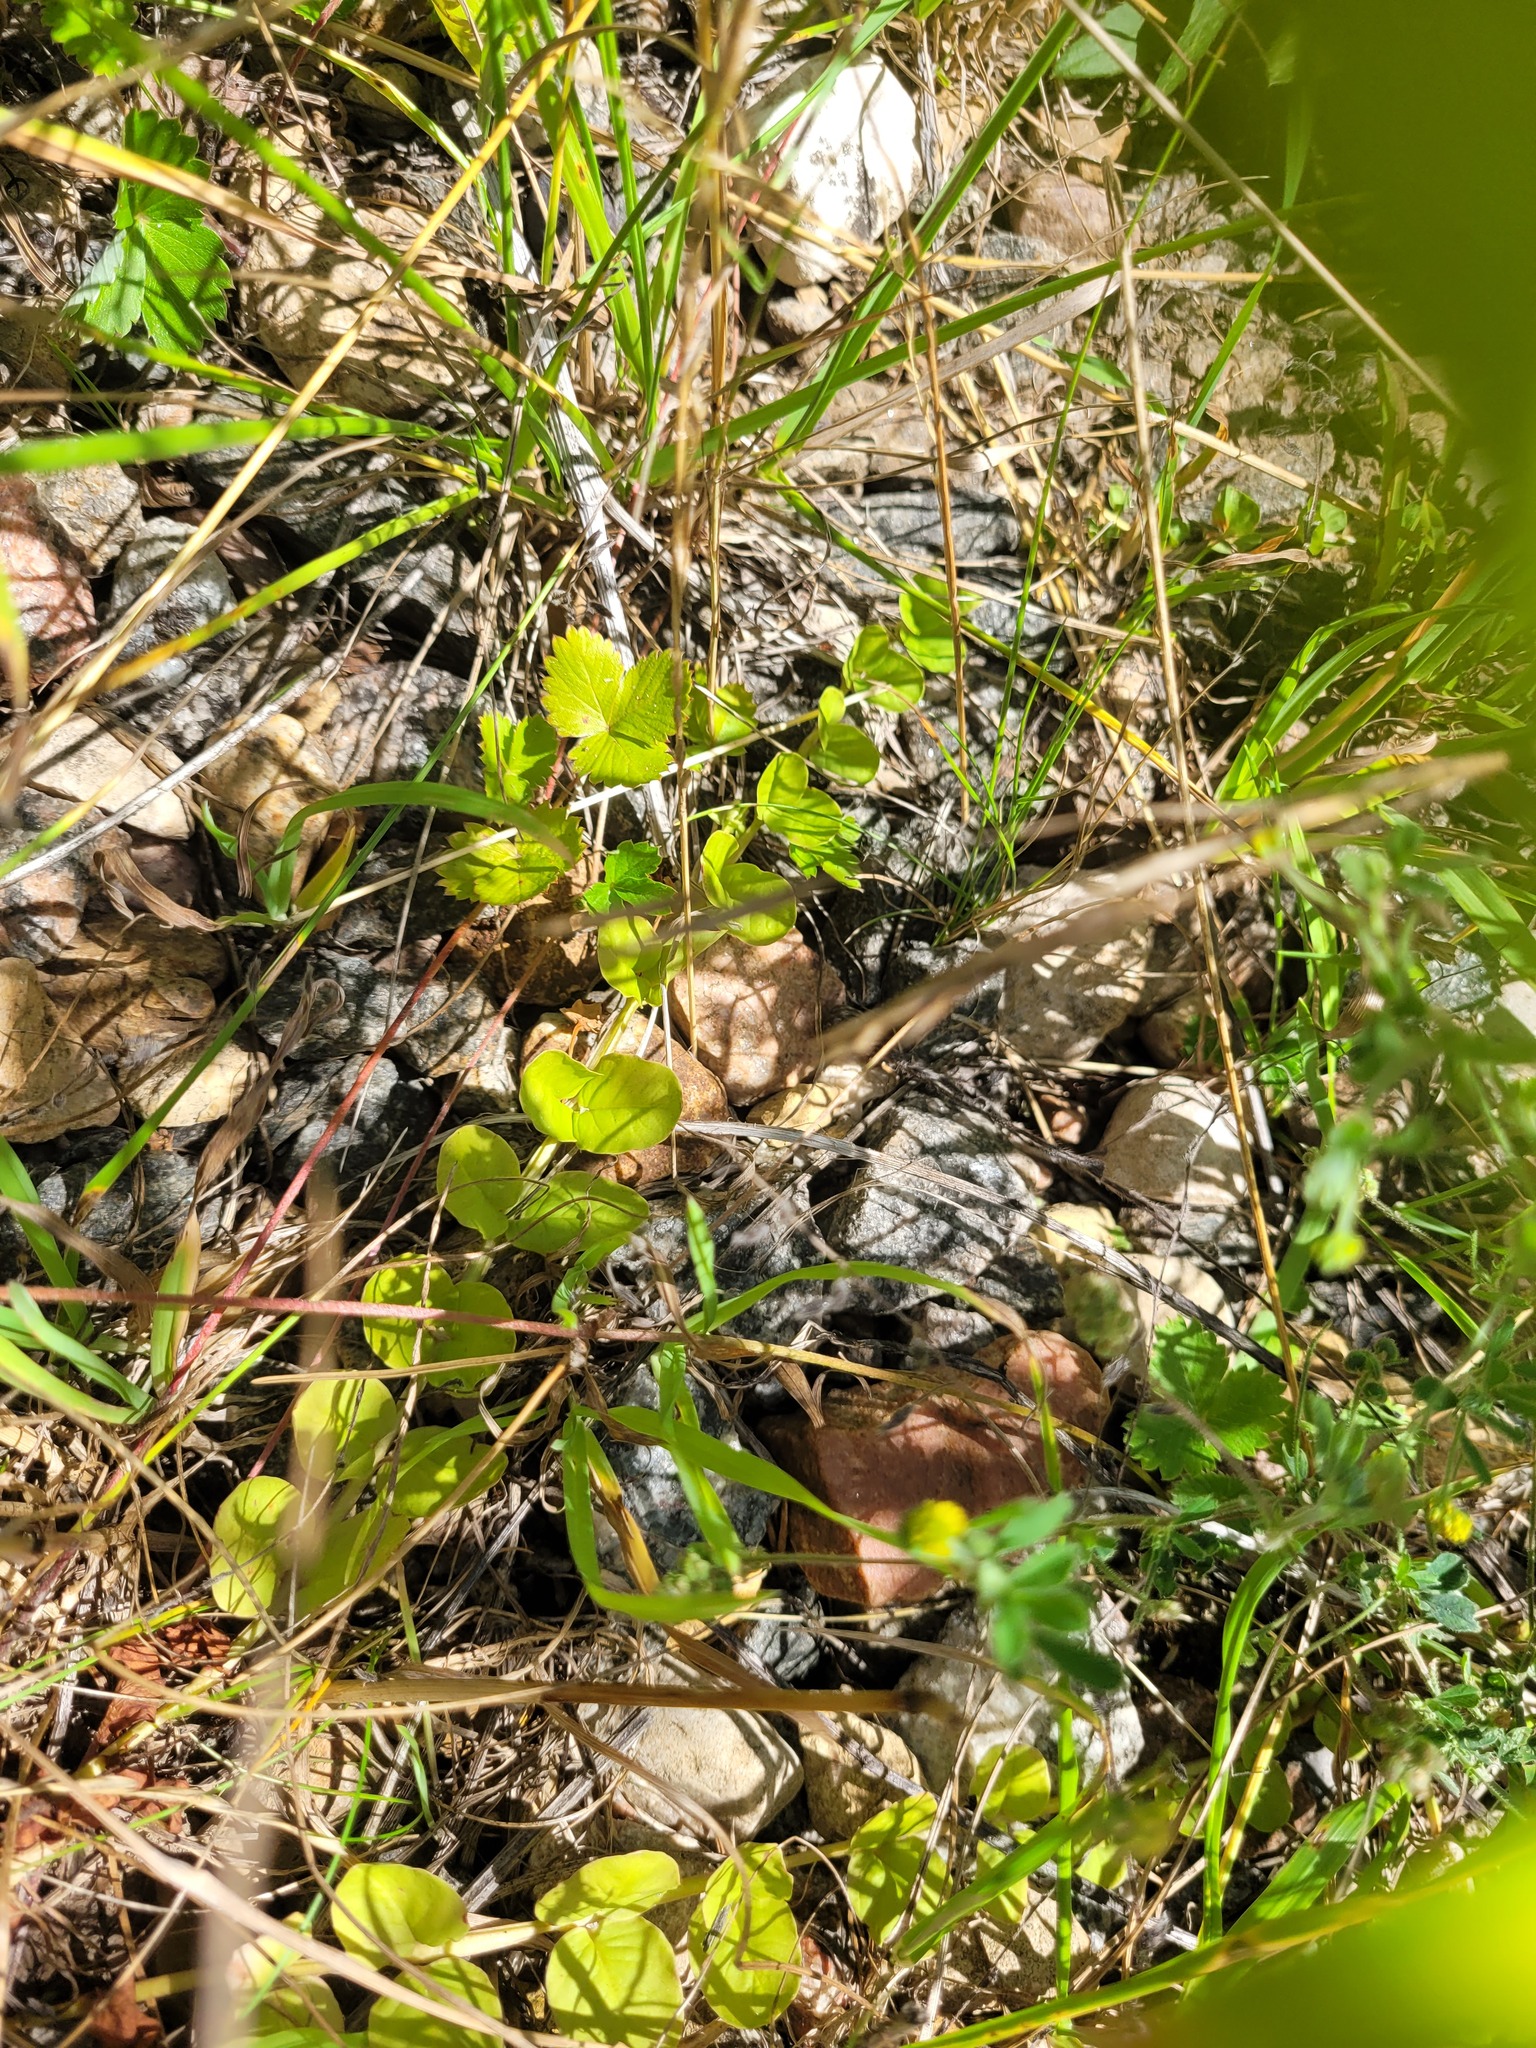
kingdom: Plantae
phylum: Tracheophyta
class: Magnoliopsida
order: Ericales
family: Primulaceae
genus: Lysimachia
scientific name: Lysimachia nummularia
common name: Moneywort
